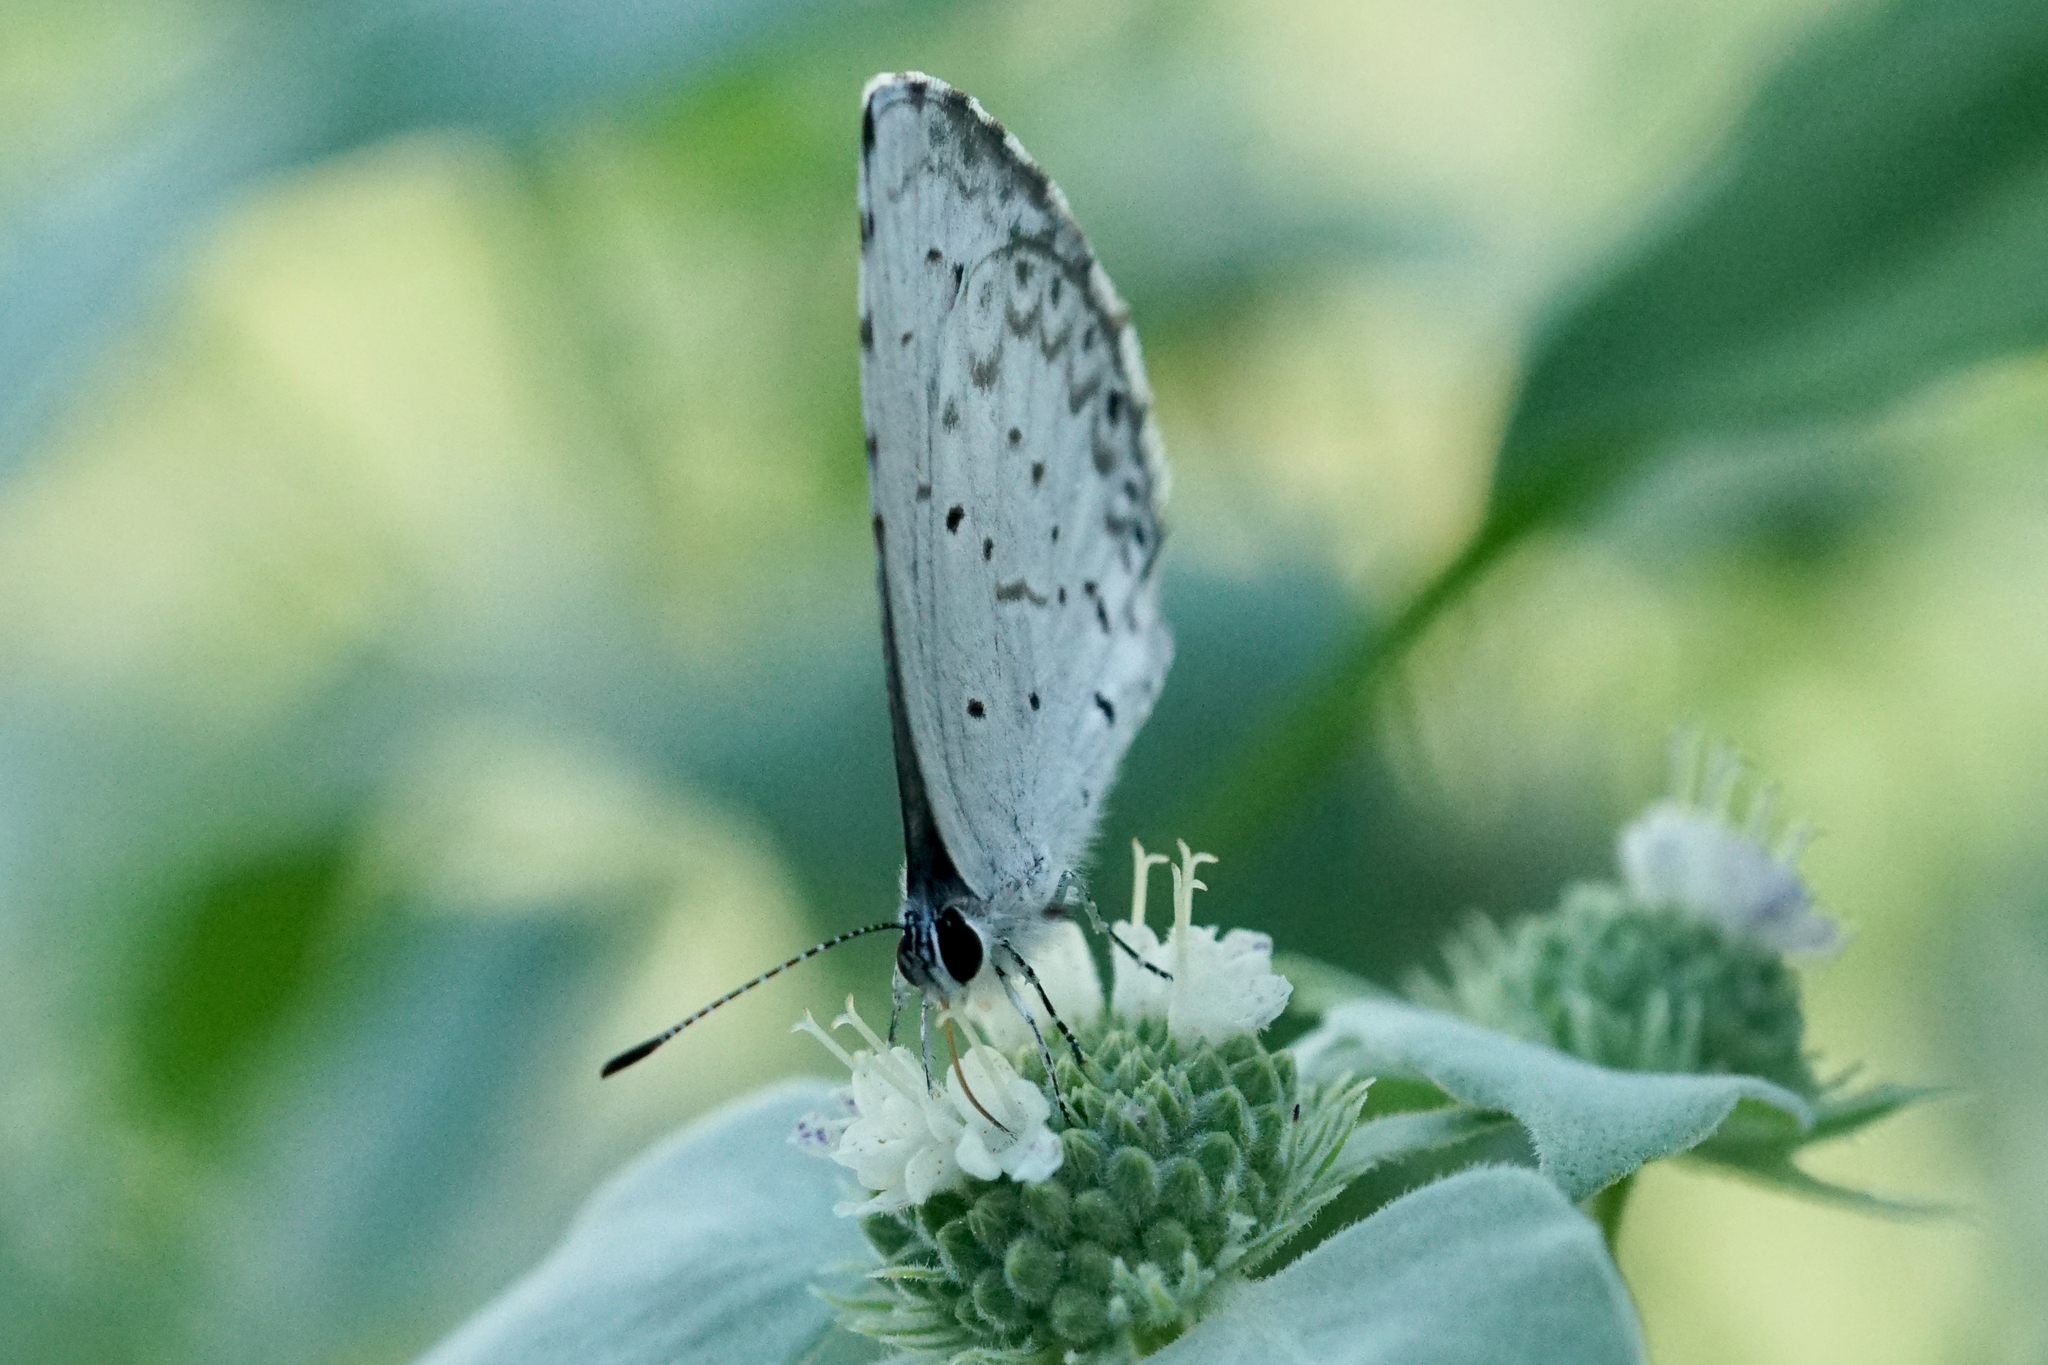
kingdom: Animalia
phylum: Arthropoda
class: Insecta
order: Lepidoptera
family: Lycaenidae
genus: Cyaniris
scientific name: Cyaniris neglecta
